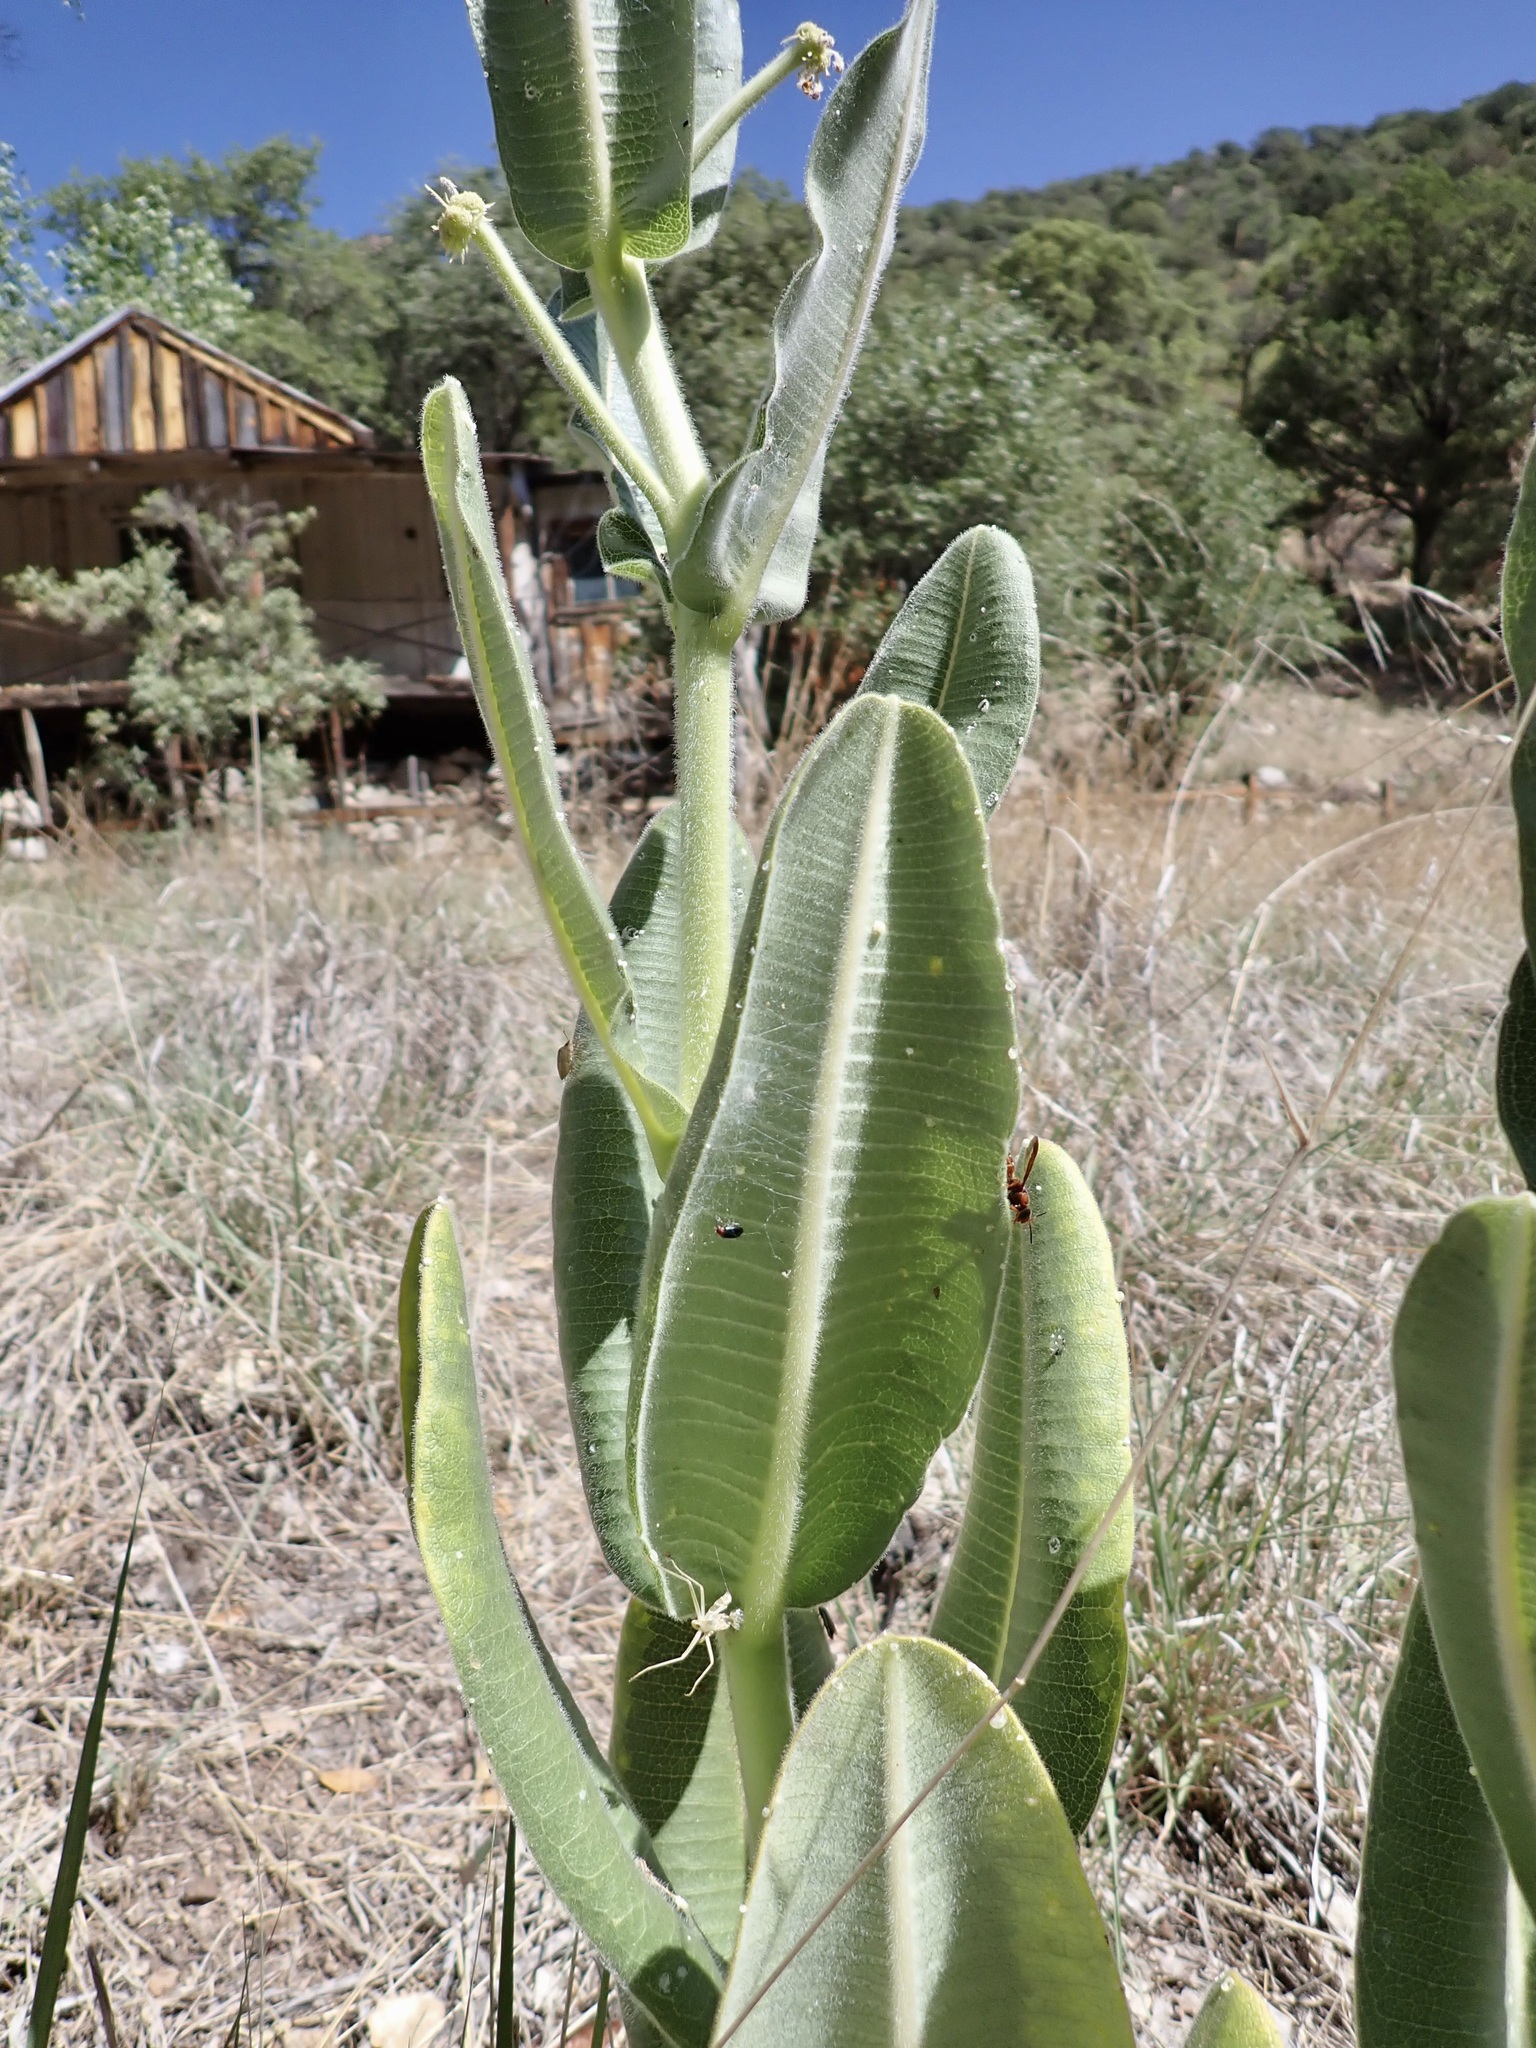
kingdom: Plantae
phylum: Tracheophyta
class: Magnoliopsida
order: Gentianales
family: Apocynaceae
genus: Asclepias
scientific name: Asclepias lemmonii
